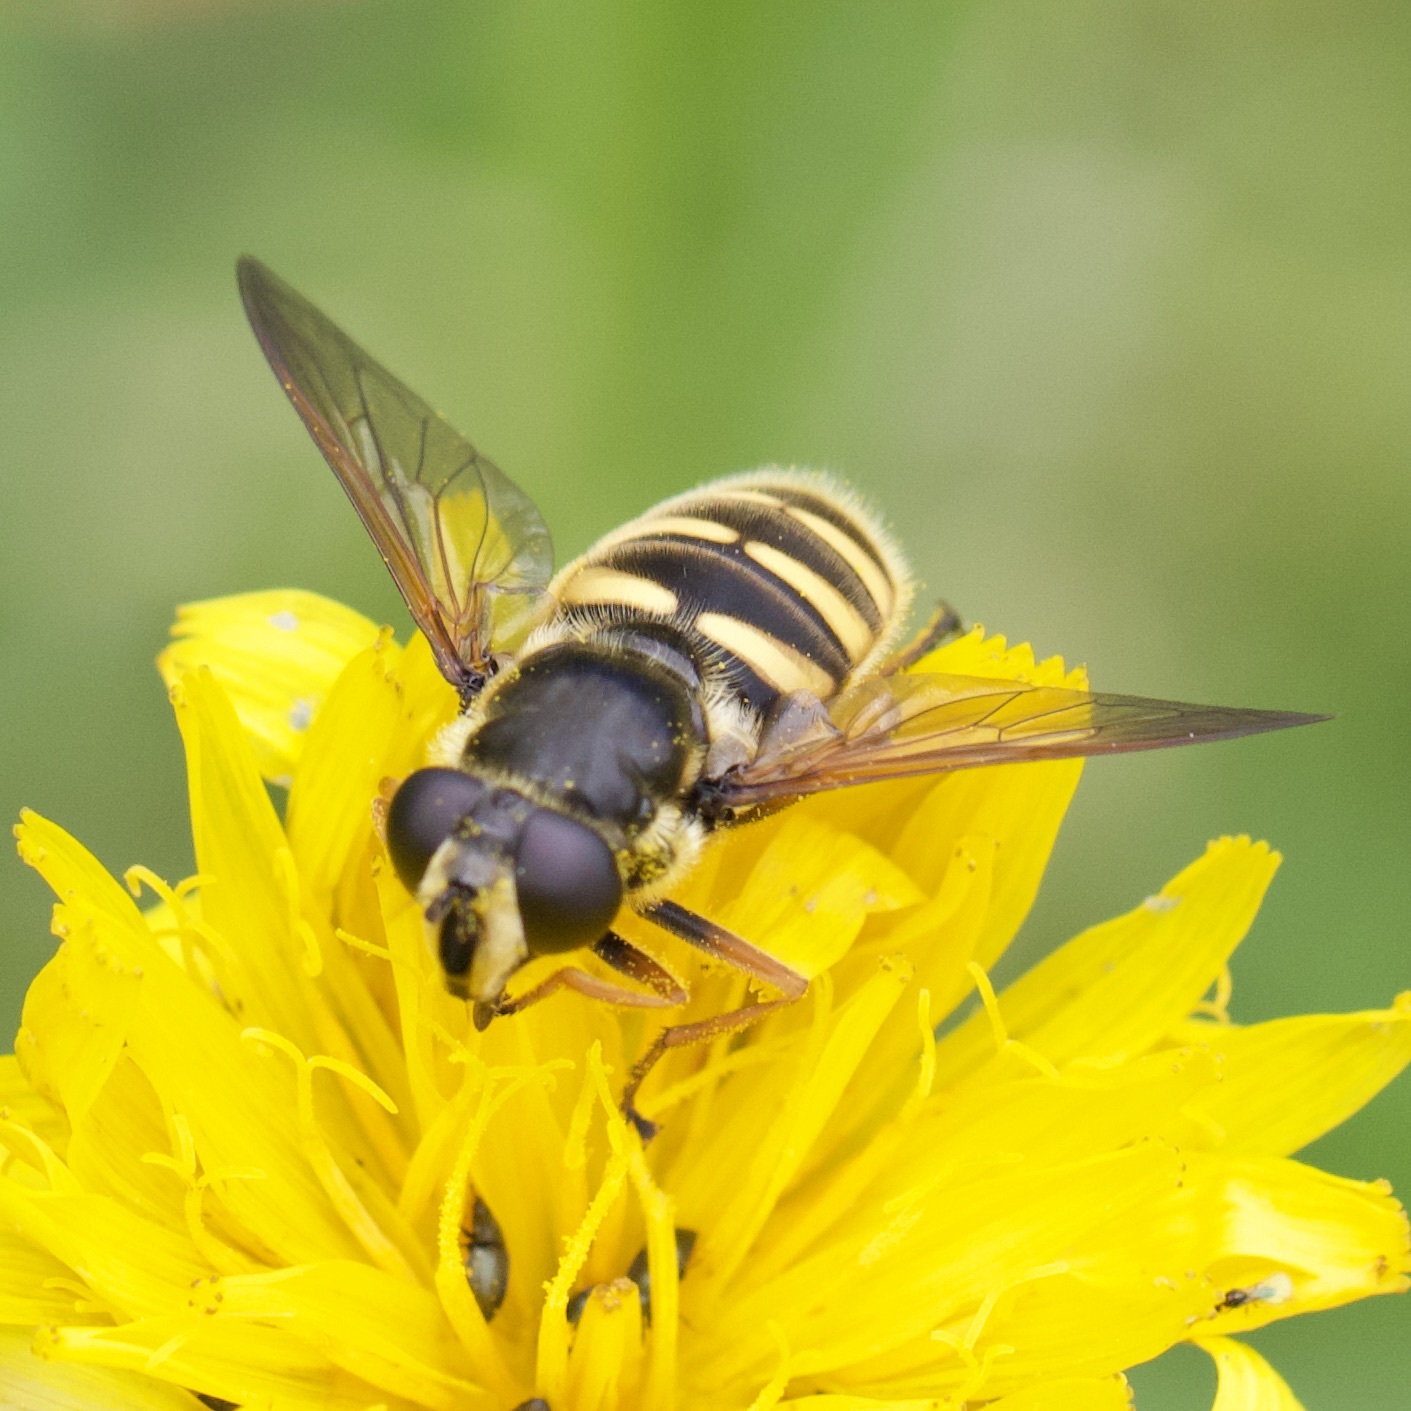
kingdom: Animalia
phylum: Arthropoda
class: Insecta
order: Diptera
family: Syrphidae
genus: Sericomyia
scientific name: Sericomyia silentis
